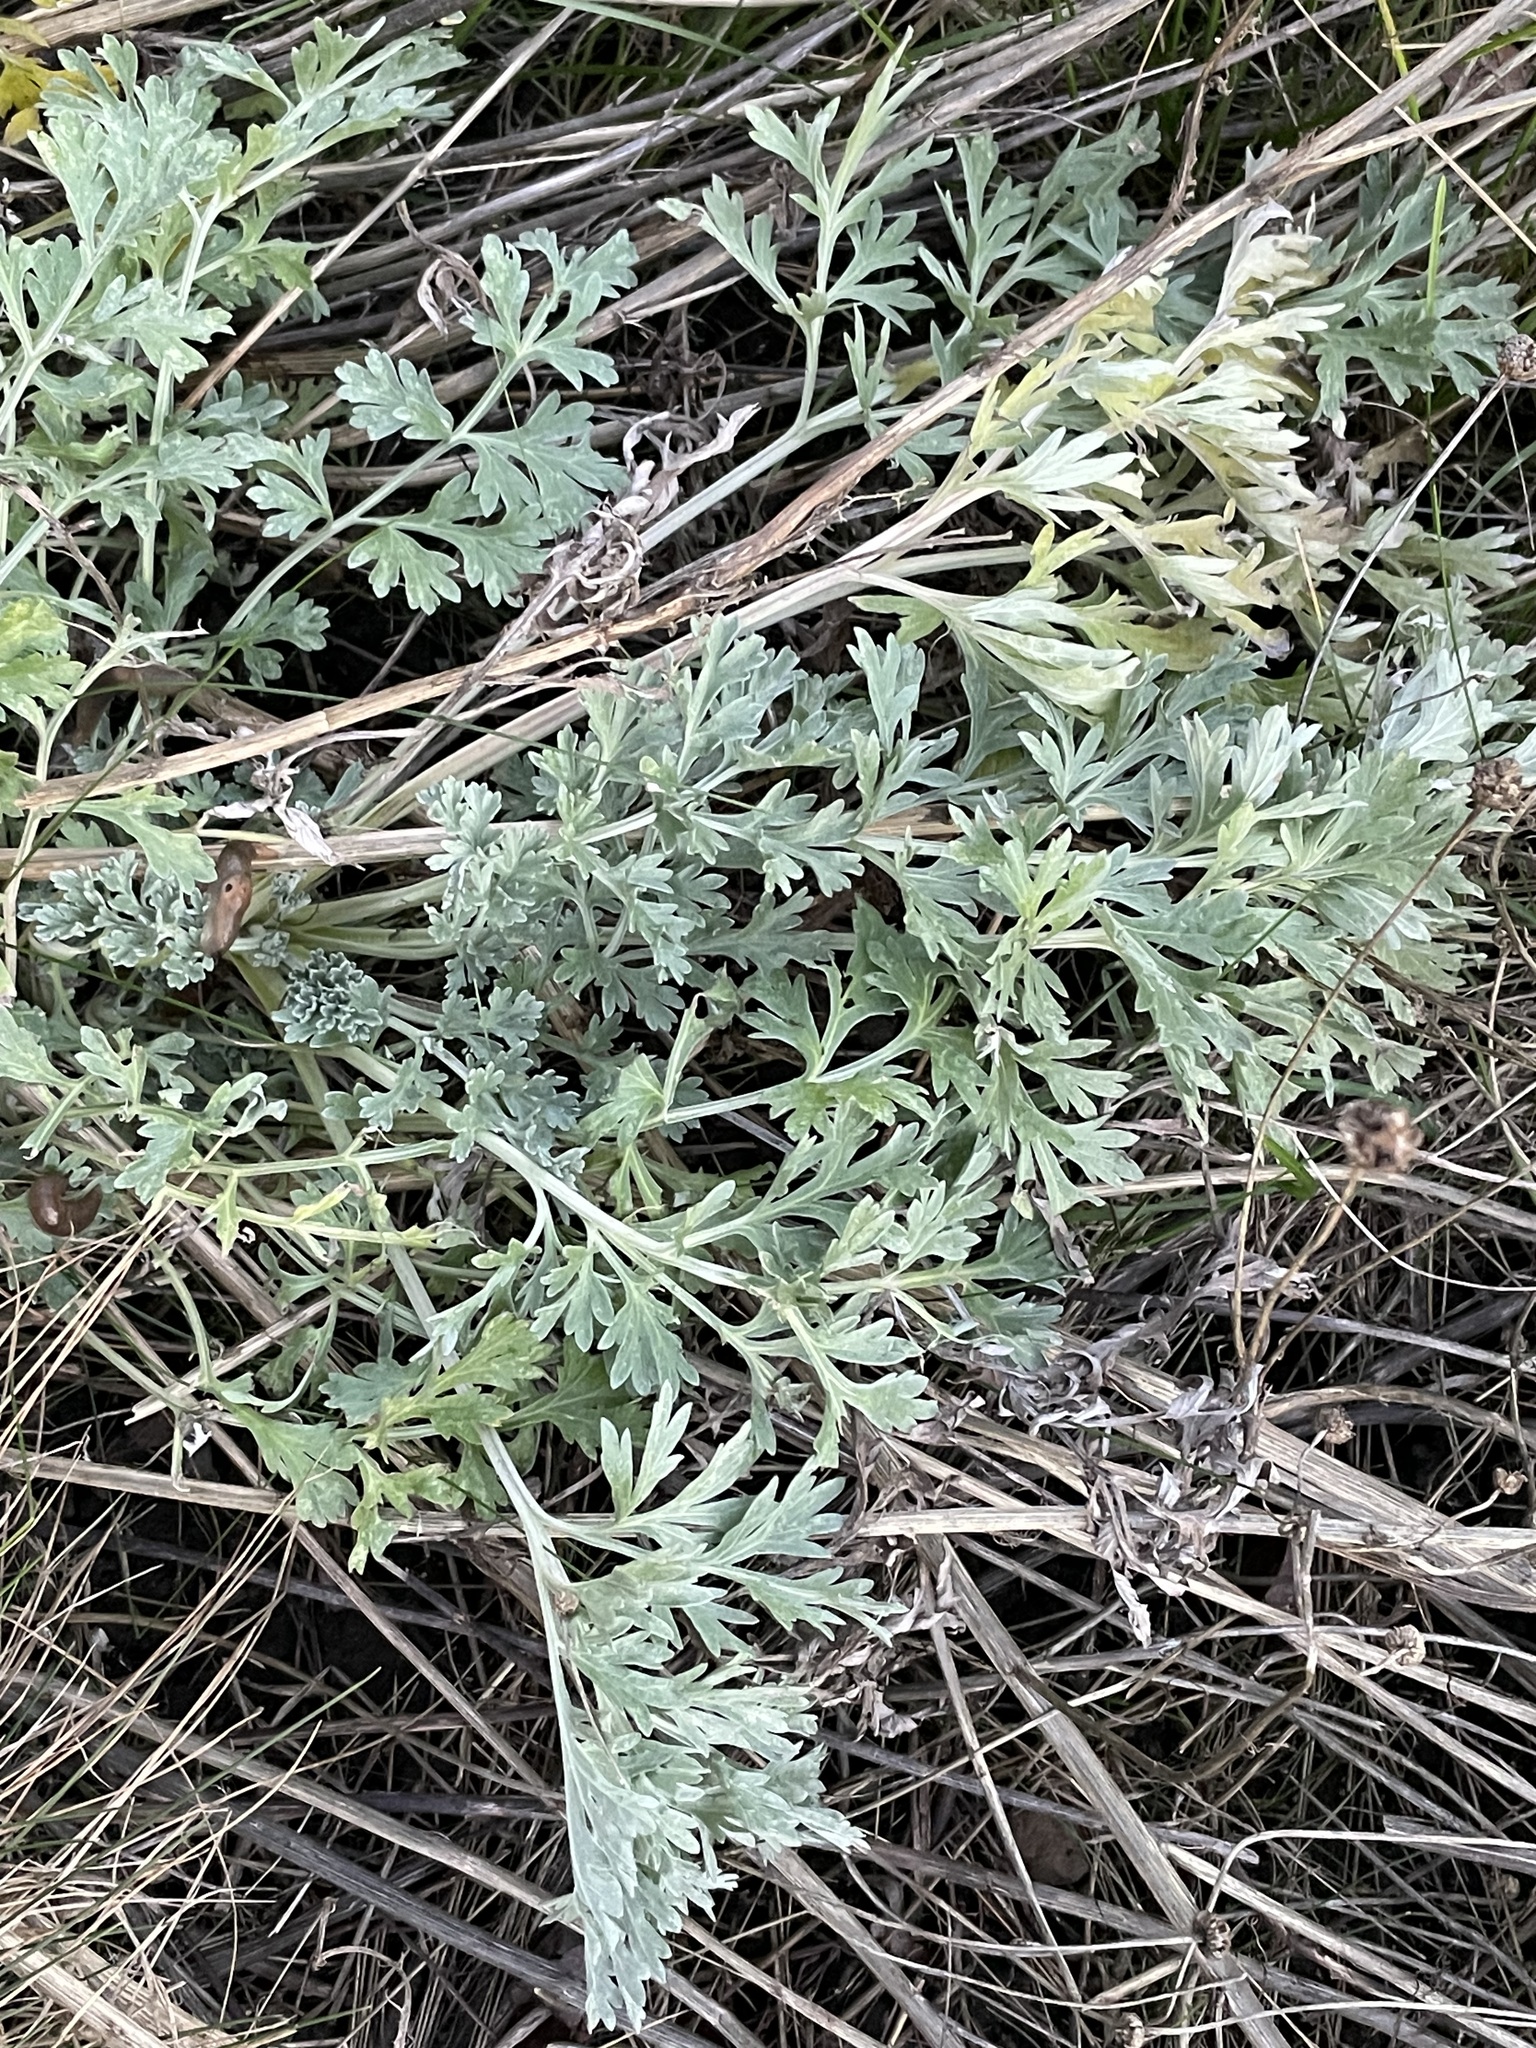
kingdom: Plantae
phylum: Tracheophyta
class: Magnoliopsida
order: Asterales
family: Asteraceae
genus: Artemisia
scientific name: Artemisia absinthium
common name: Wormwood
